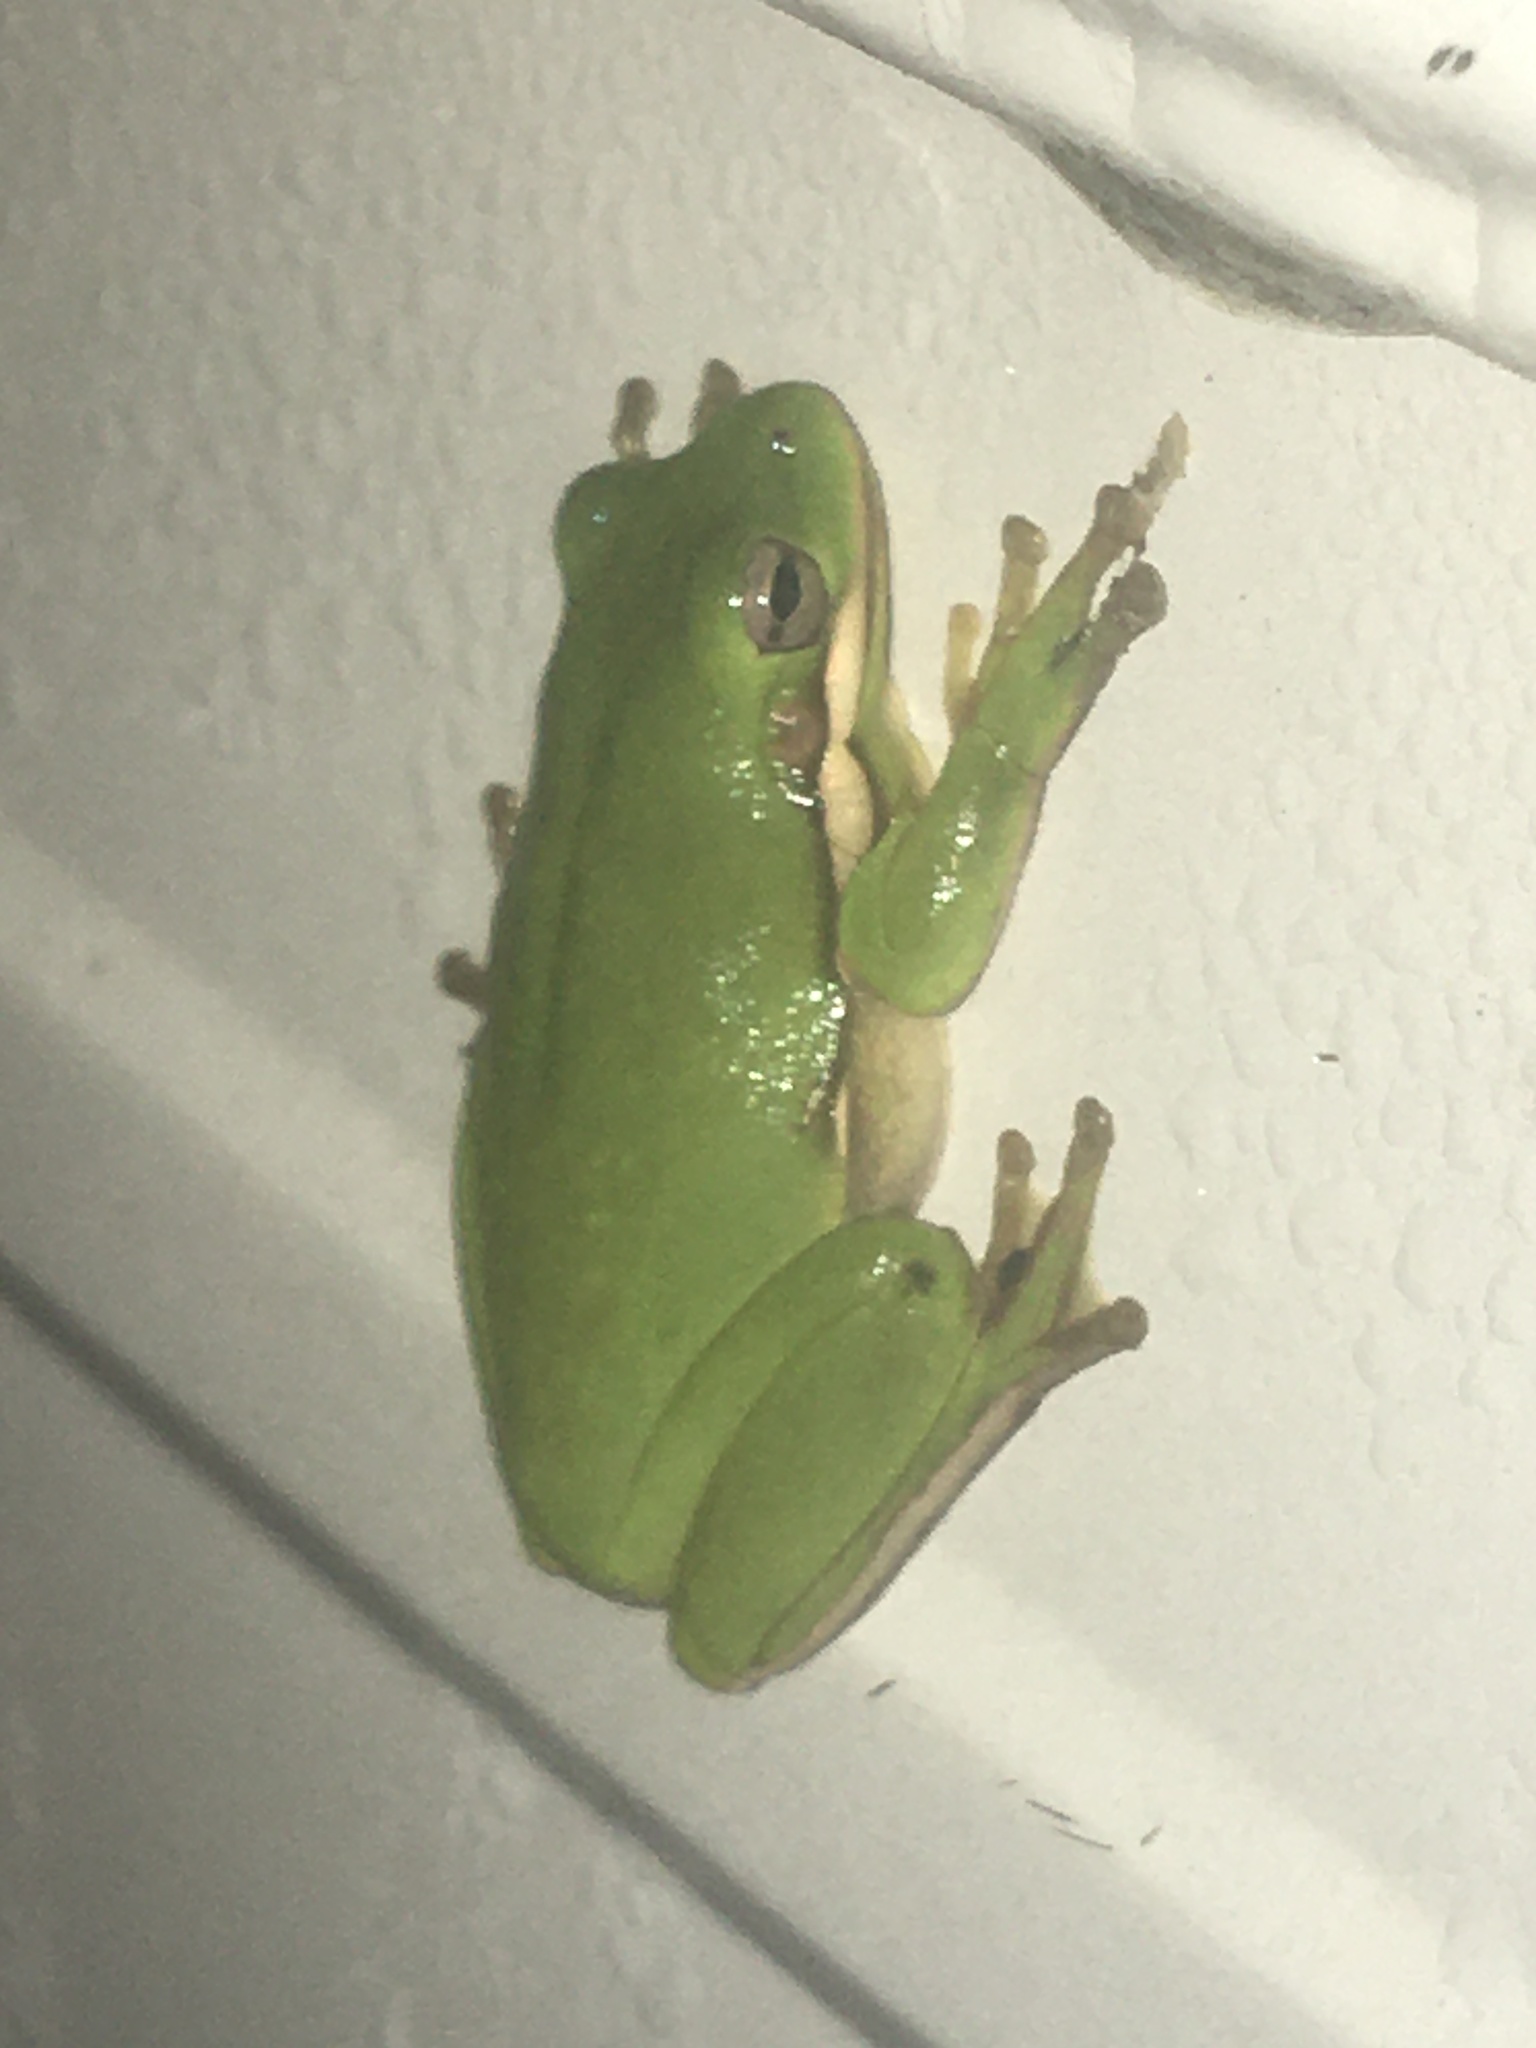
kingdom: Animalia
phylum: Chordata
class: Amphibia
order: Anura
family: Hylidae
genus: Dryophytes
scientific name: Dryophytes cinereus
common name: Green treefrog
